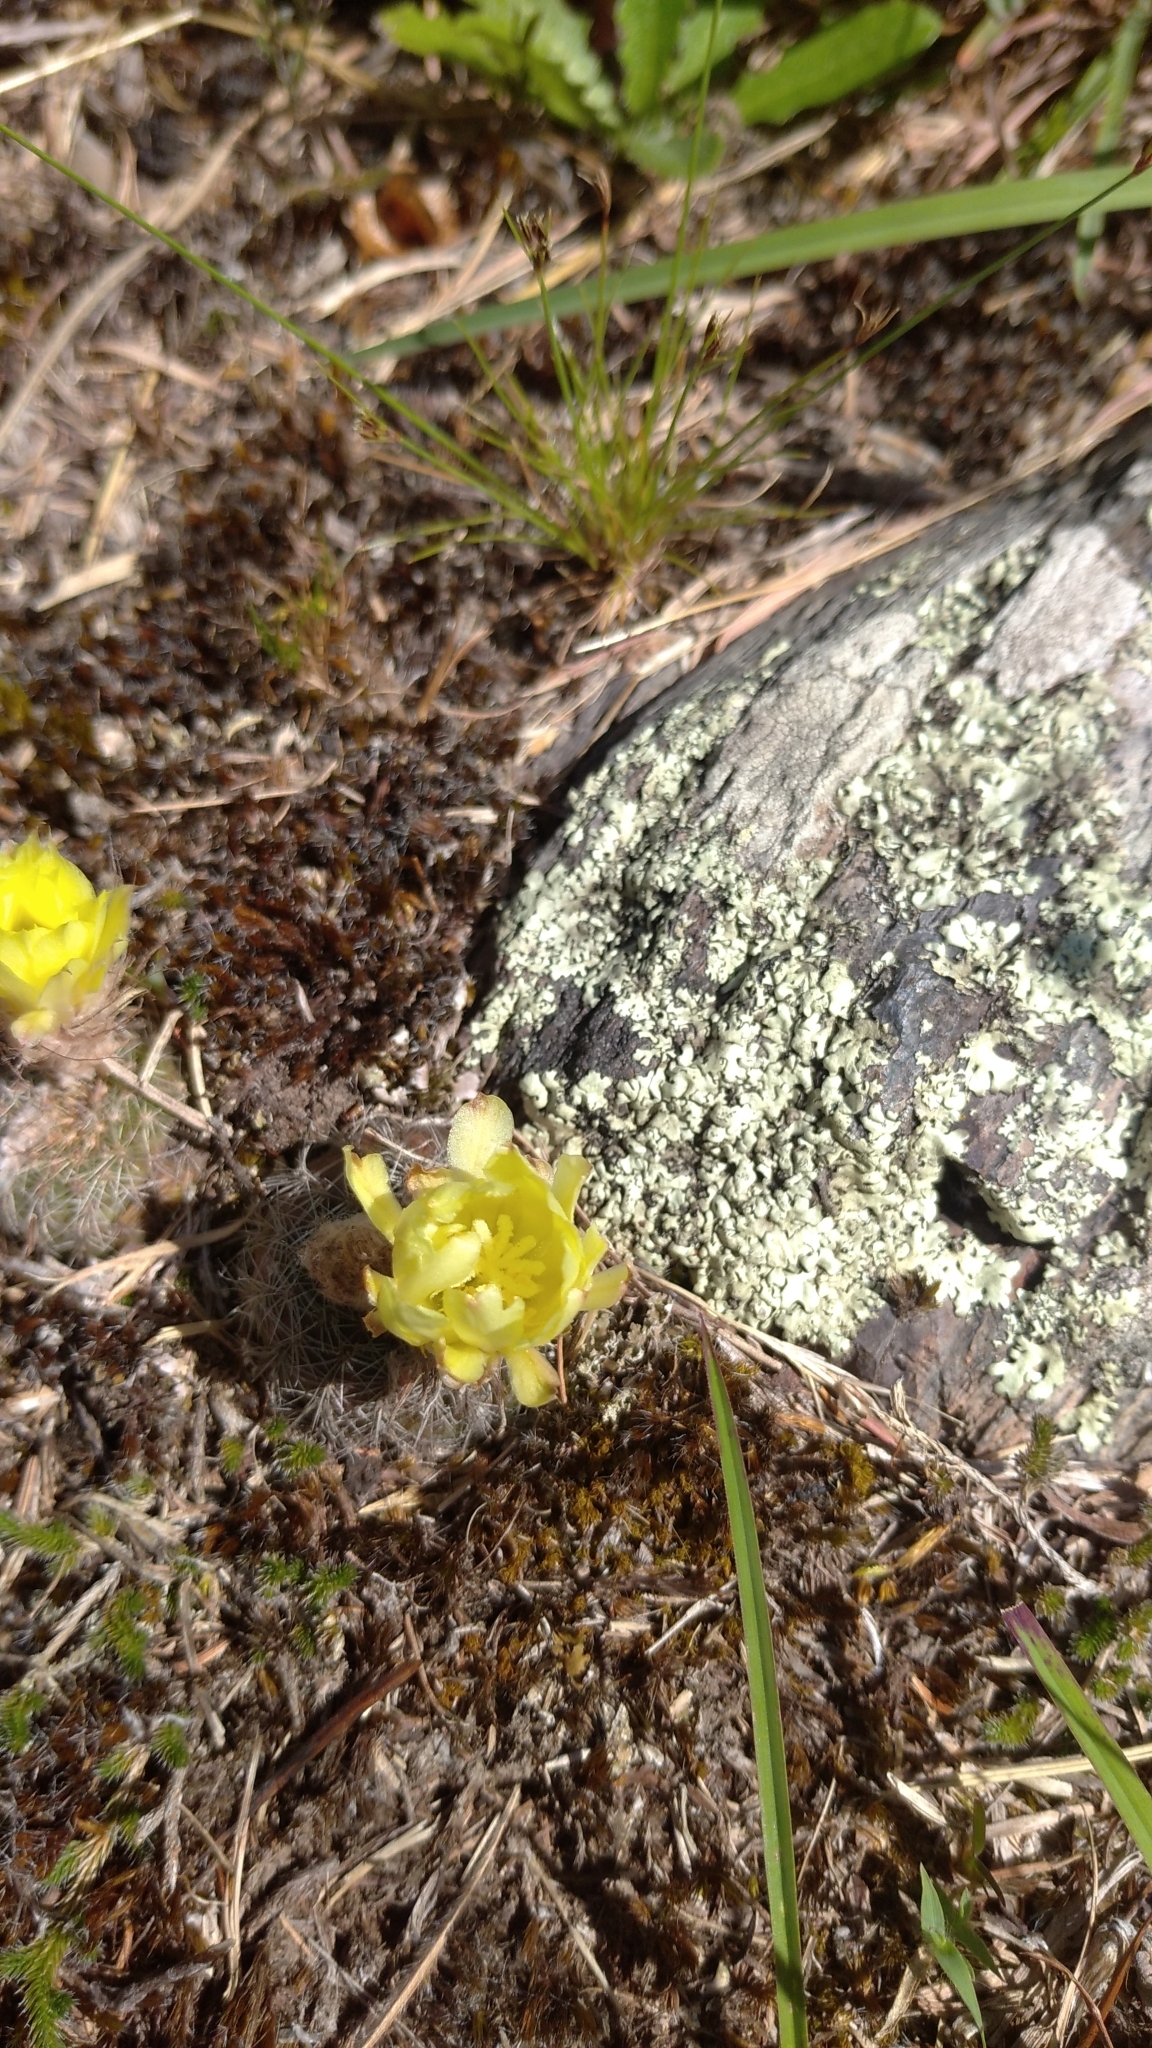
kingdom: Plantae
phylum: Tracheophyta
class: Magnoliopsida
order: Caryophyllales
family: Cactaceae
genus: Frailea
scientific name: Frailea pygmaea
